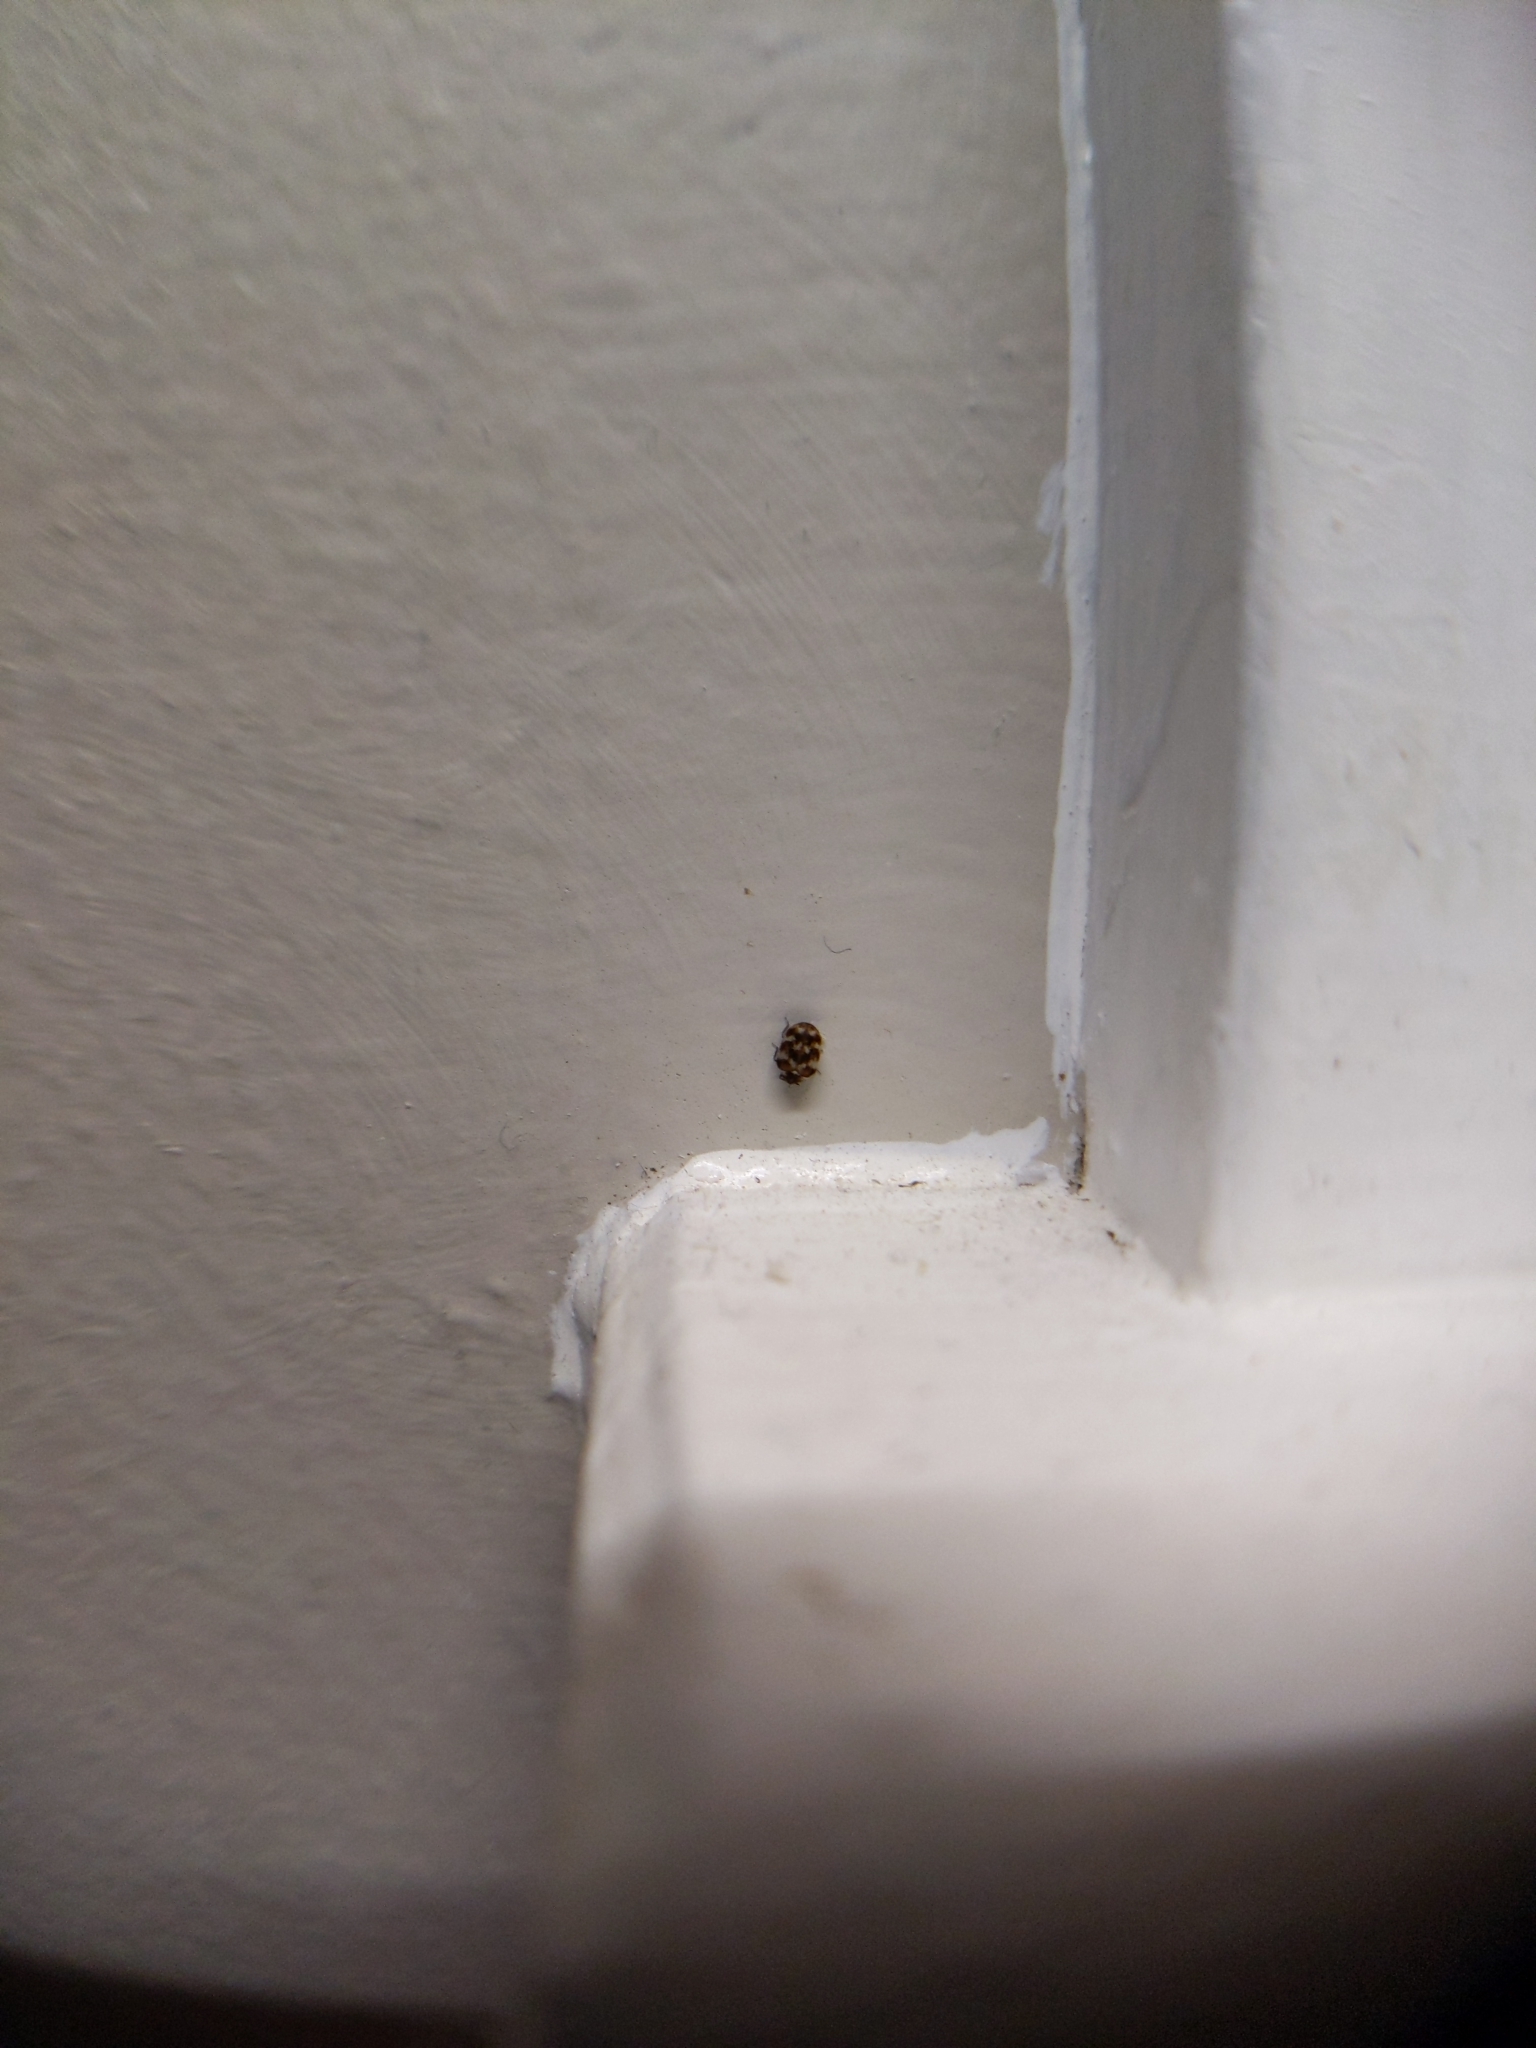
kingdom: Animalia
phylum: Arthropoda
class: Insecta
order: Coleoptera
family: Dermestidae
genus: Anthrenus
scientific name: Anthrenus verbasci
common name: Varied carpet beetle
